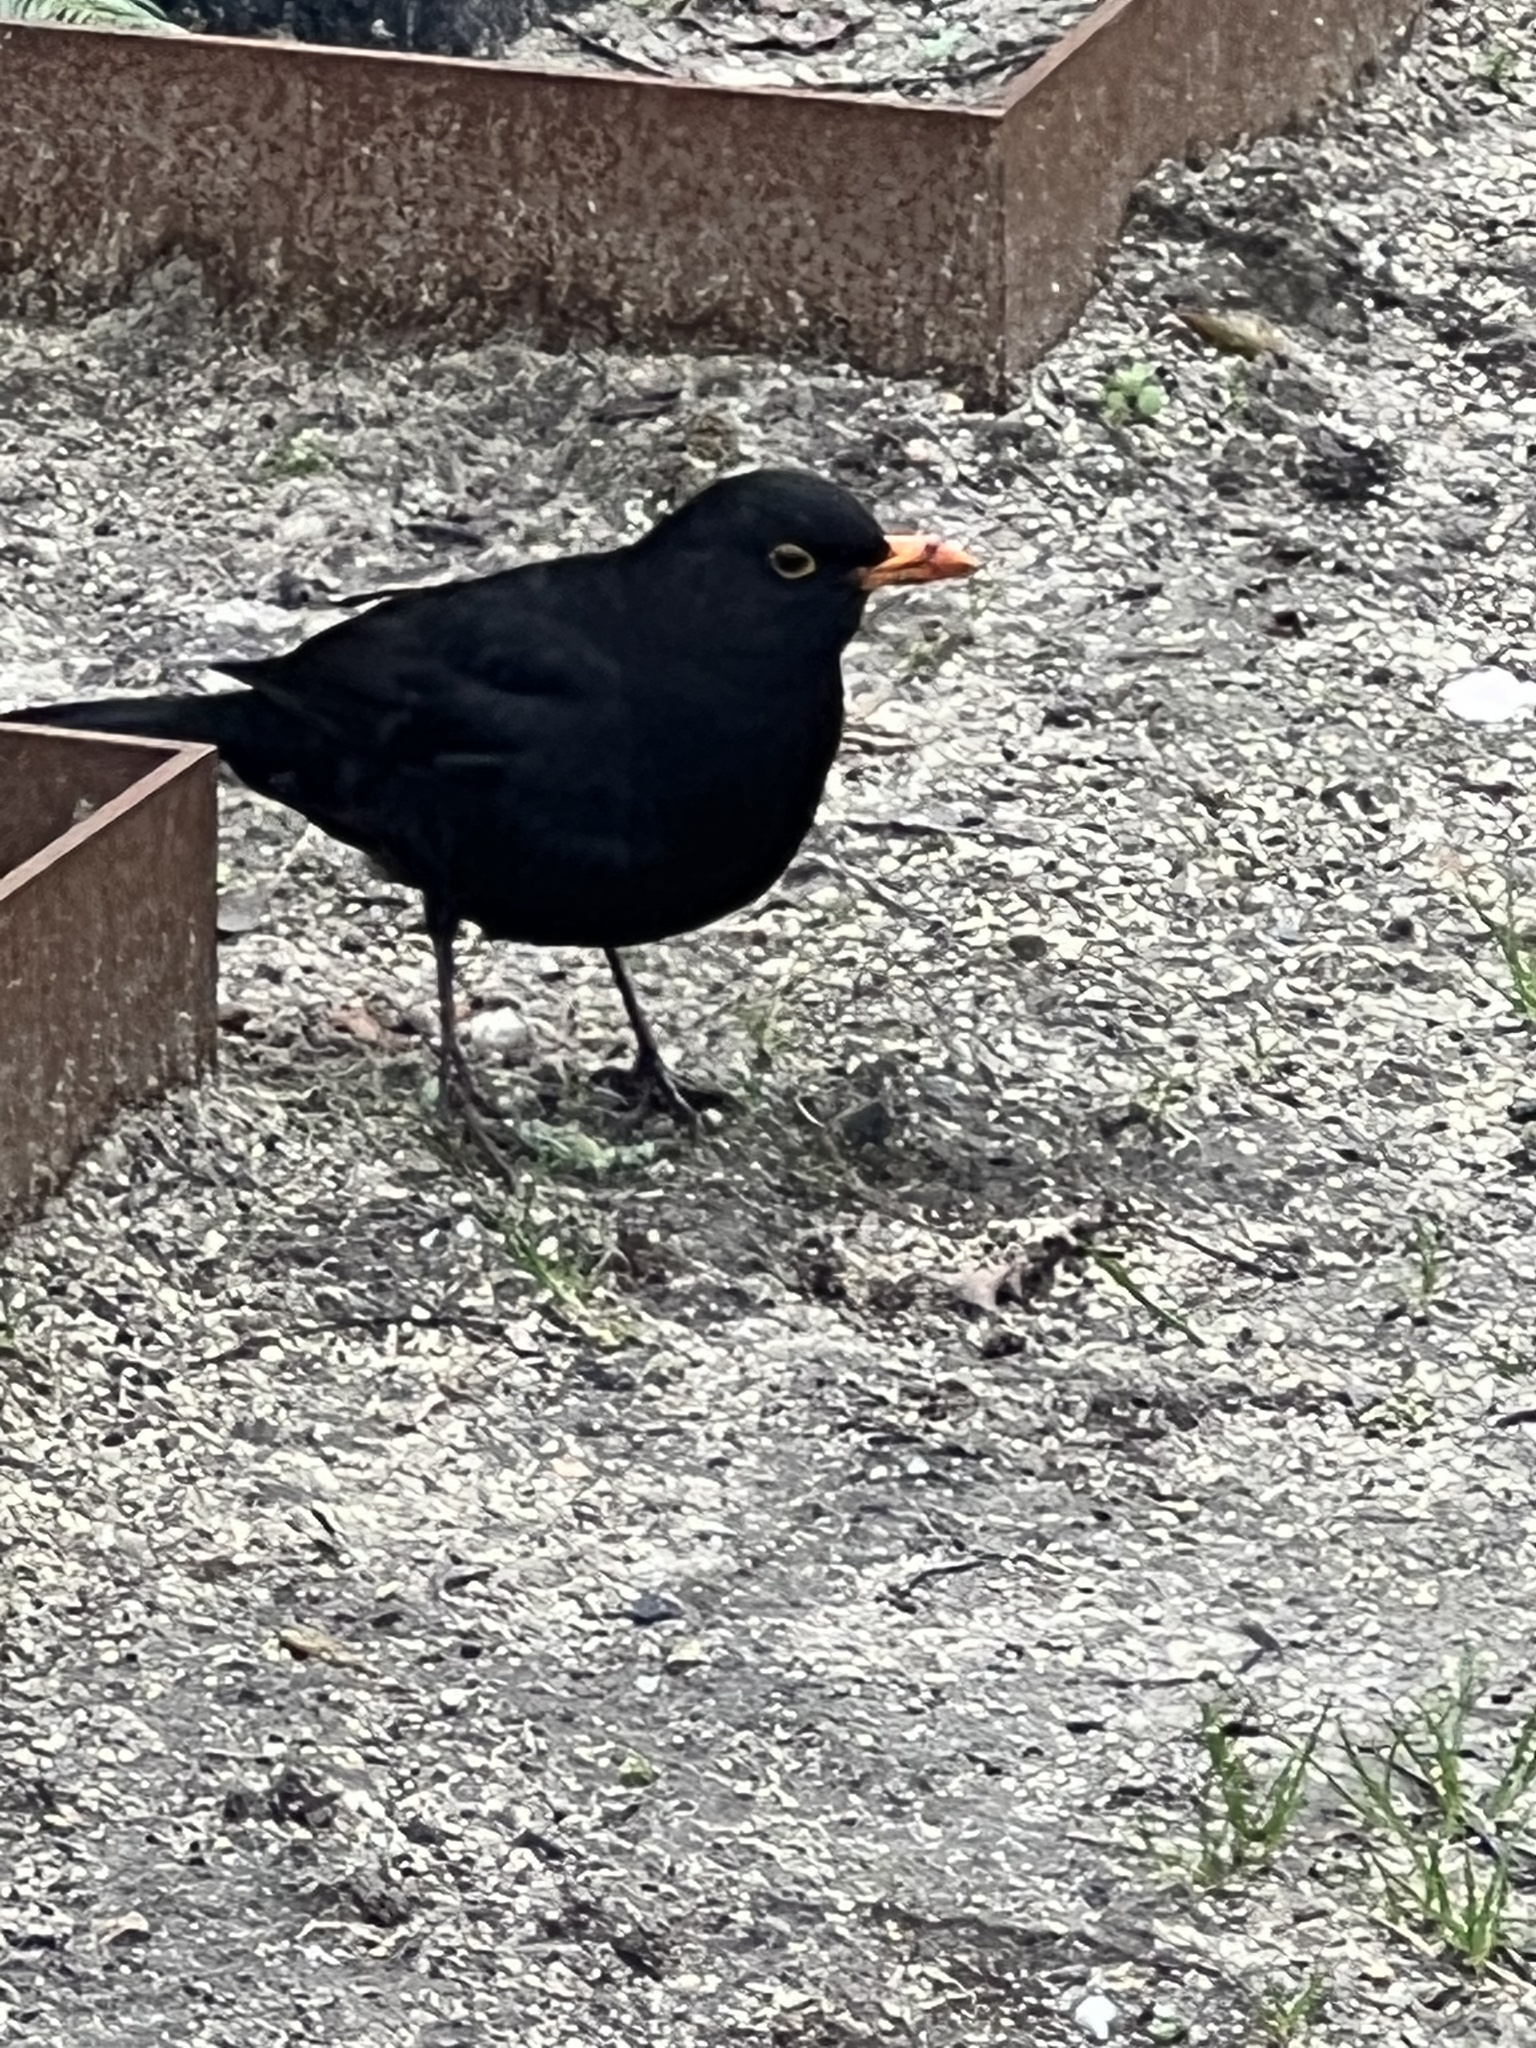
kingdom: Animalia
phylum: Chordata
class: Aves
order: Passeriformes
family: Turdidae
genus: Turdus
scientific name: Turdus merula
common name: Common blackbird
